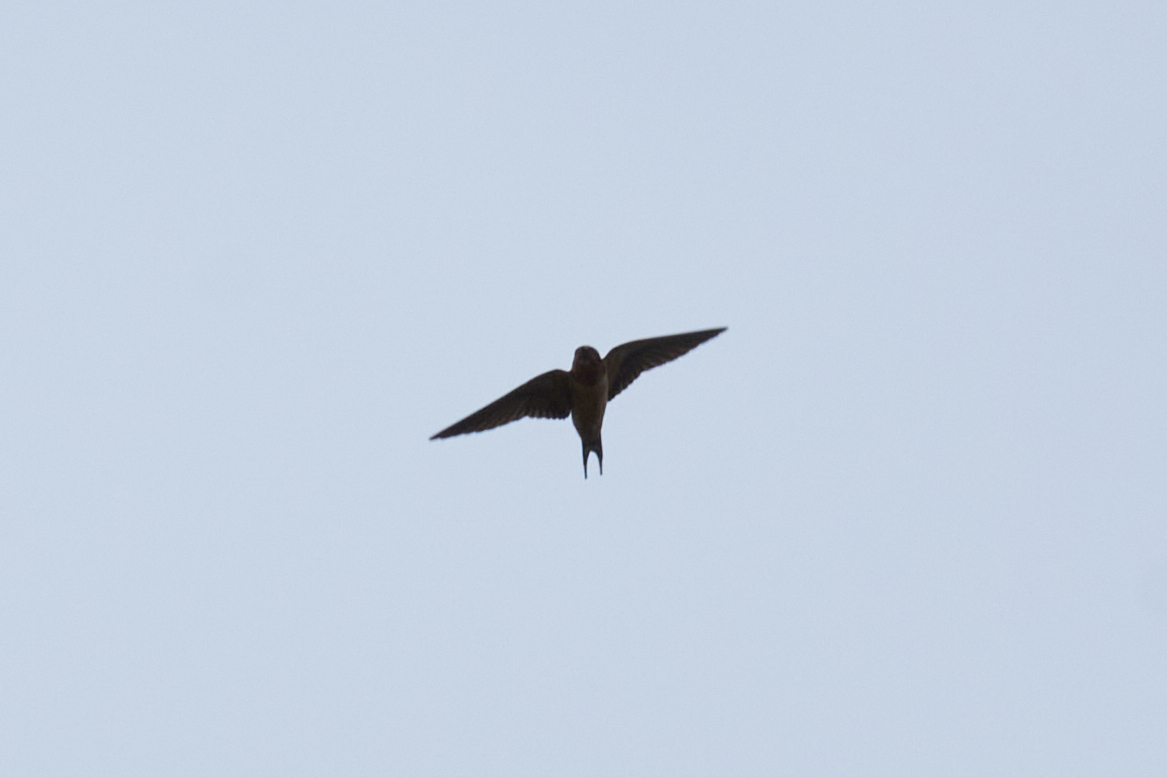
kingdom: Animalia
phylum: Chordata
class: Aves
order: Passeriformes
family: Hirundinidae
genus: Hirundo
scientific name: Hirundo rustica
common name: Barn swallow
